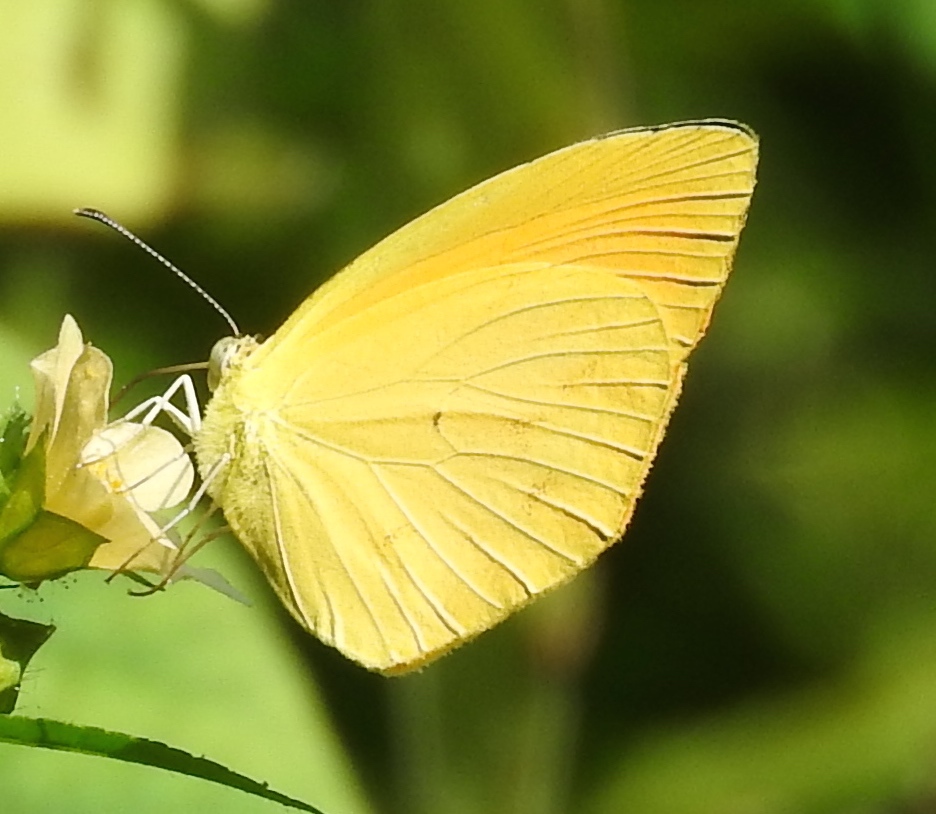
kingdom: Animalia
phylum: Arthropoda
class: Insecta
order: Lepidoptera
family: Pieridae
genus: Pyrisitia
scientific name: Pyrisitia proterpia
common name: Tailed orange
